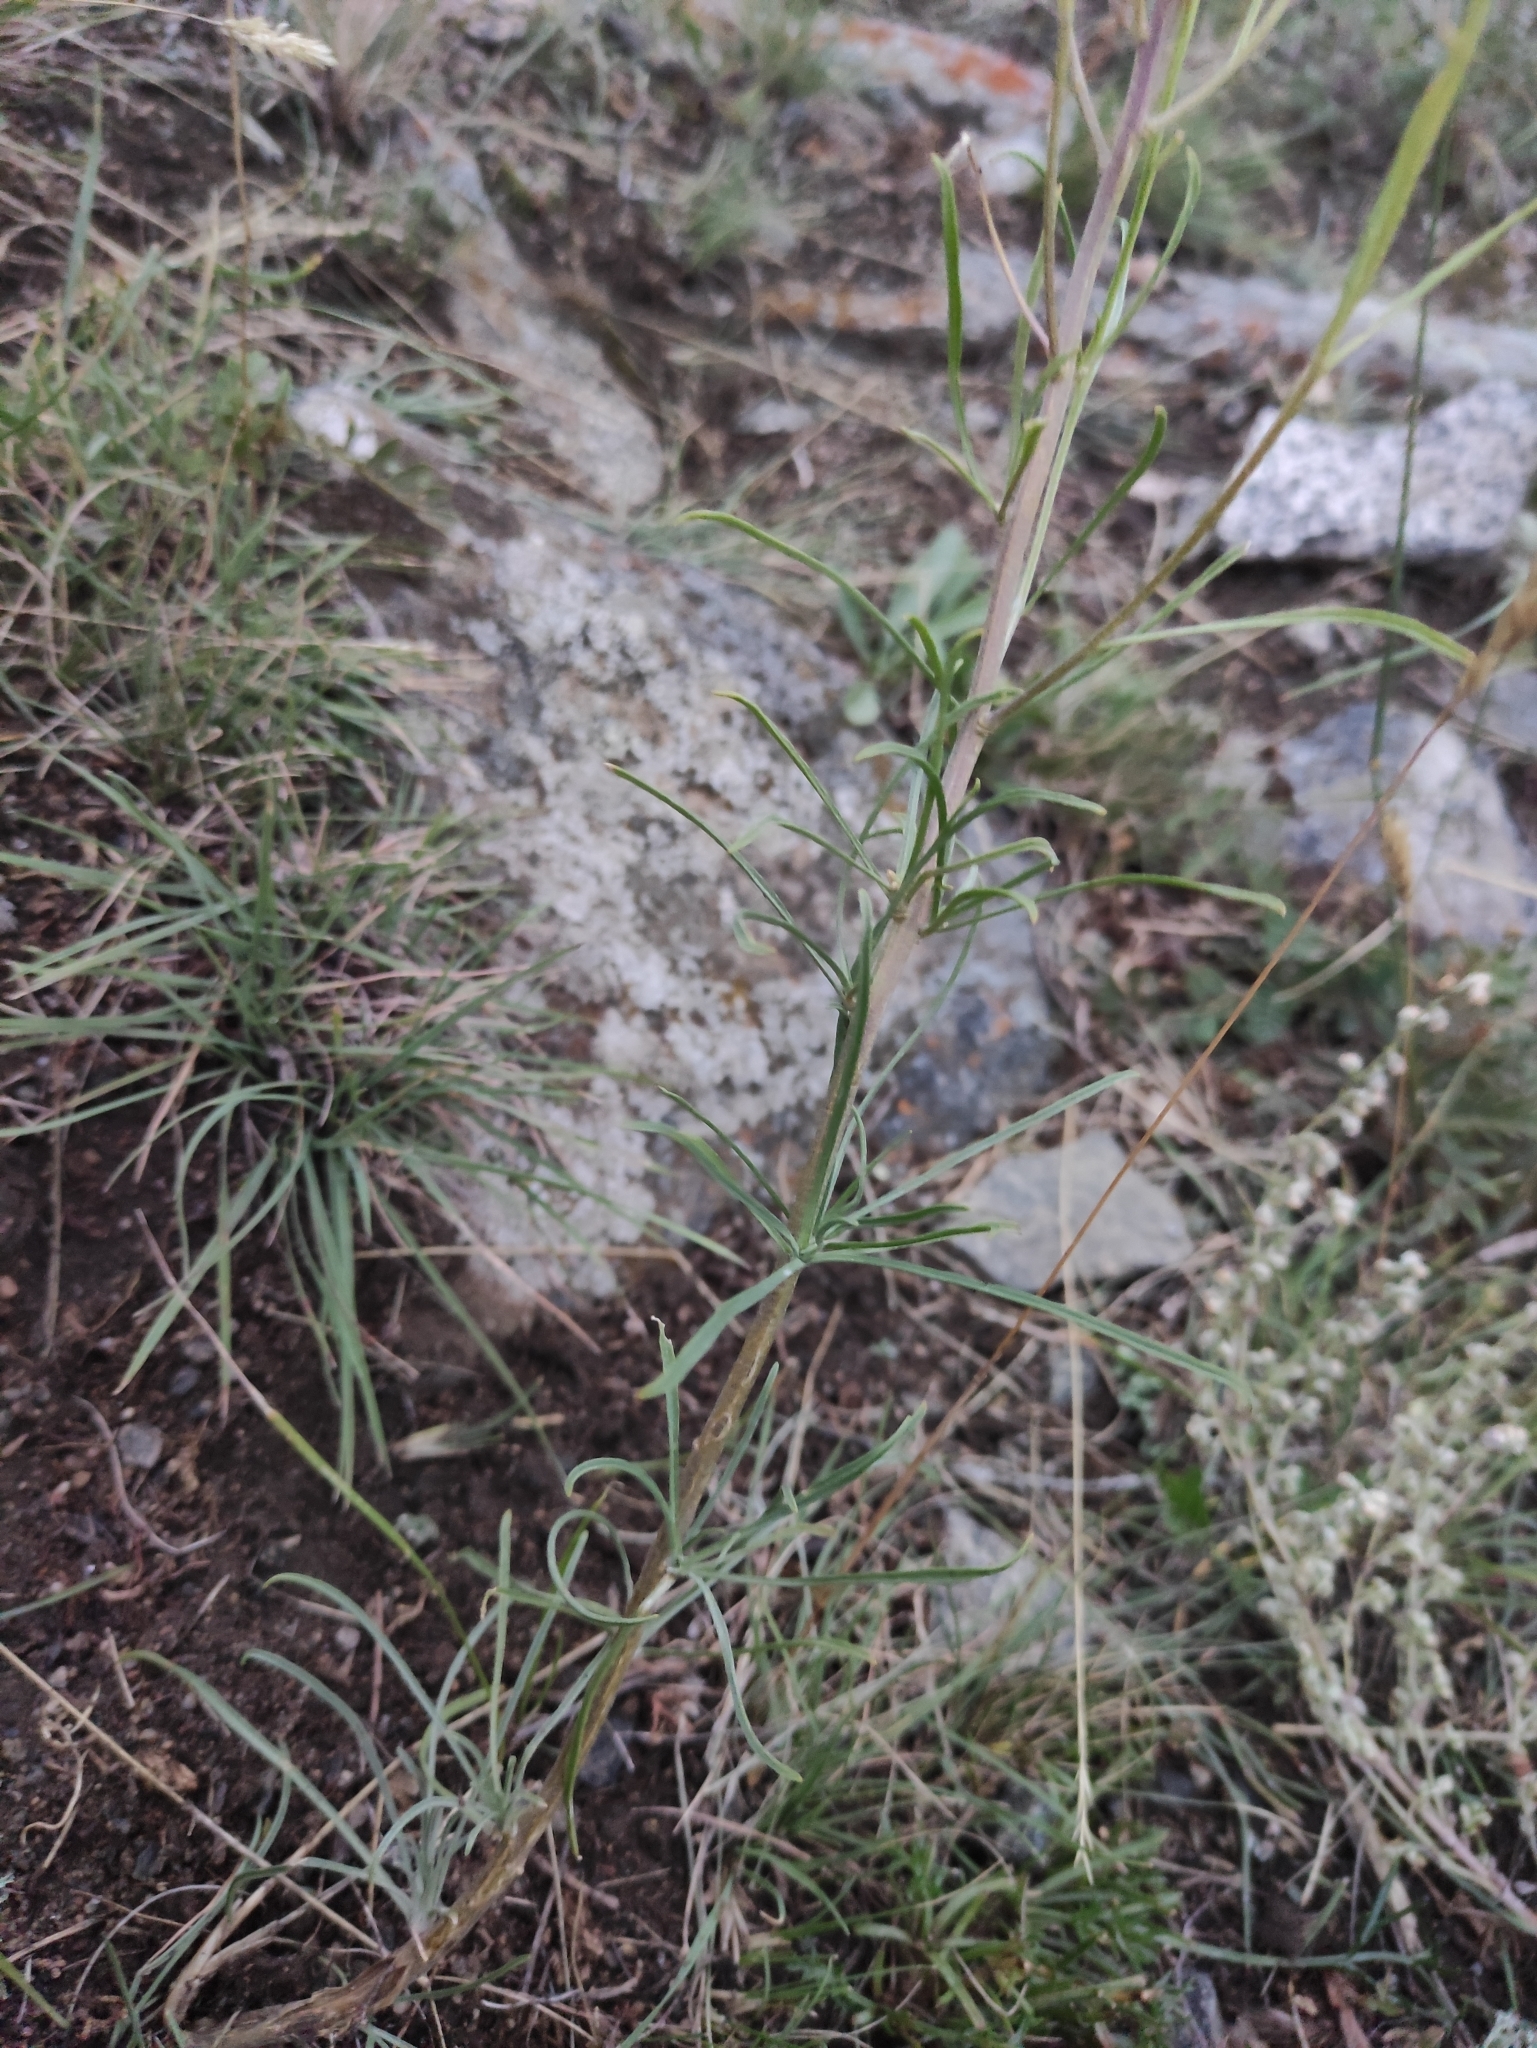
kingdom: Plantae
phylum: Tracheophyta
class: Magnoliopsida
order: Brassicales
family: Brassicaceae
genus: Erysimum
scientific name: Erysimum flavum
